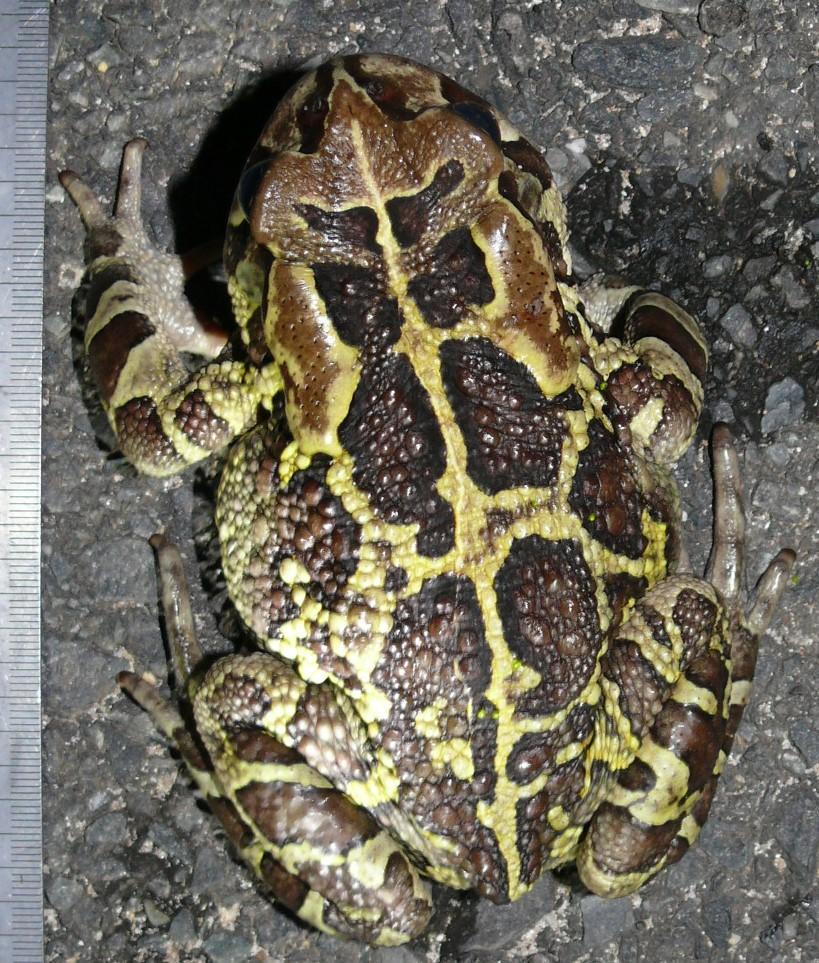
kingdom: Animalia
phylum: Chordata
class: Amphibia
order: Anura
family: Bufonidae
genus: Sclerophrys
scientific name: Sclerophrys pantherina
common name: Panther toad
